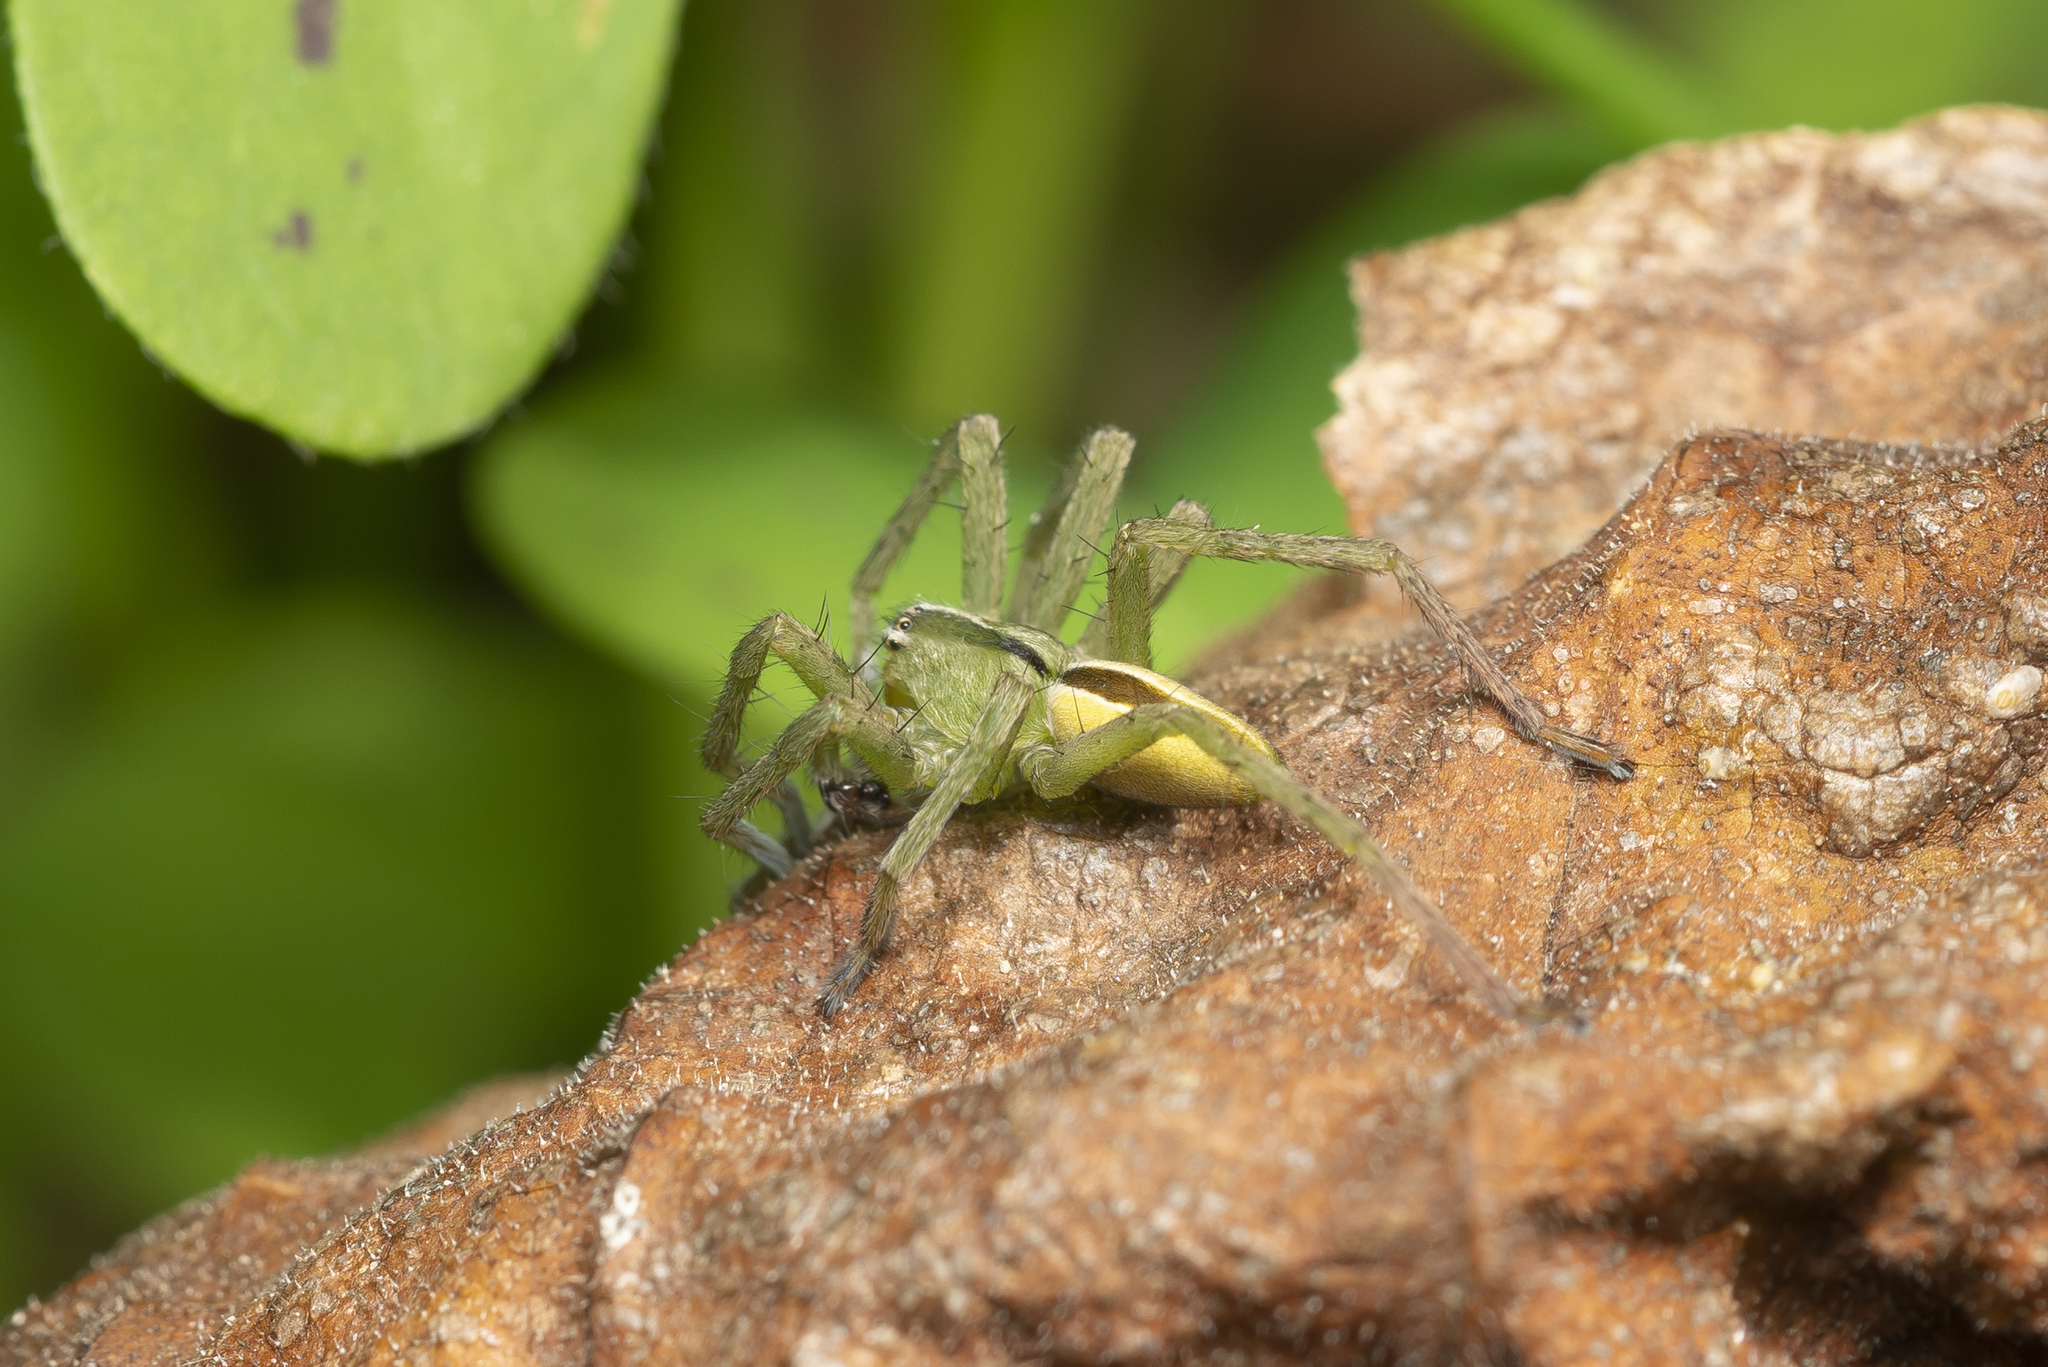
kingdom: Animalia
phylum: Arthropoda
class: Arachnida
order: Araneae
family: Sparassidae
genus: Micrommata
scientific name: Micrommata ligurina
